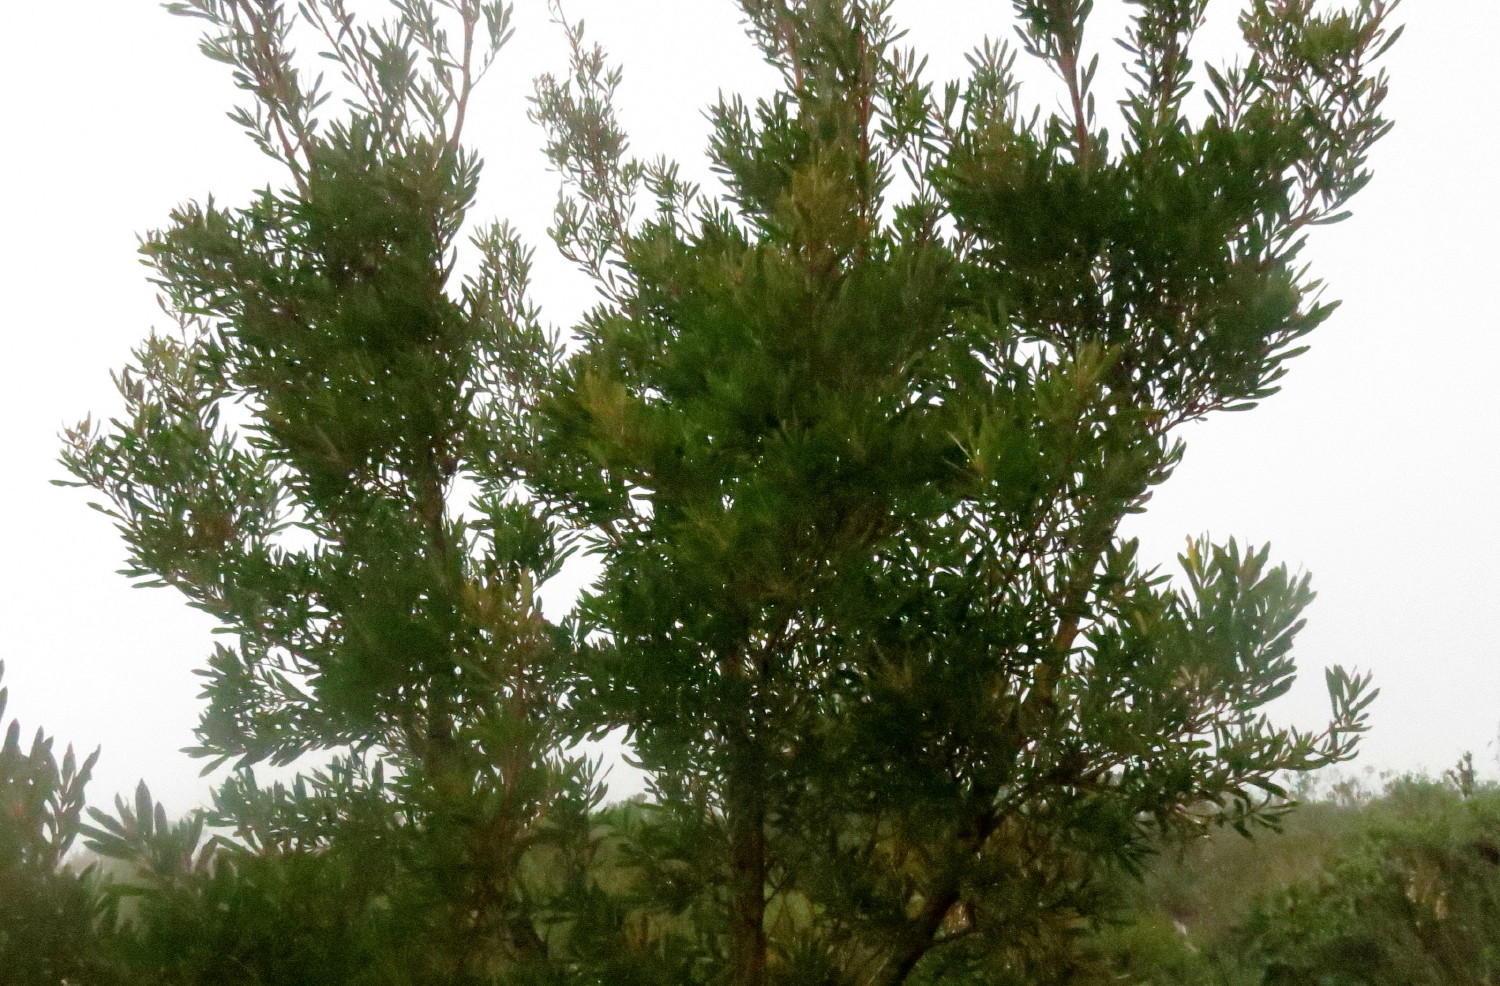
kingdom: Plantae
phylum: Tracheophyta
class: Magnoliopsida
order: Proteales
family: Proteaceae
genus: Leucadendron
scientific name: Leucadendron conicum
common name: Garden route conebush
